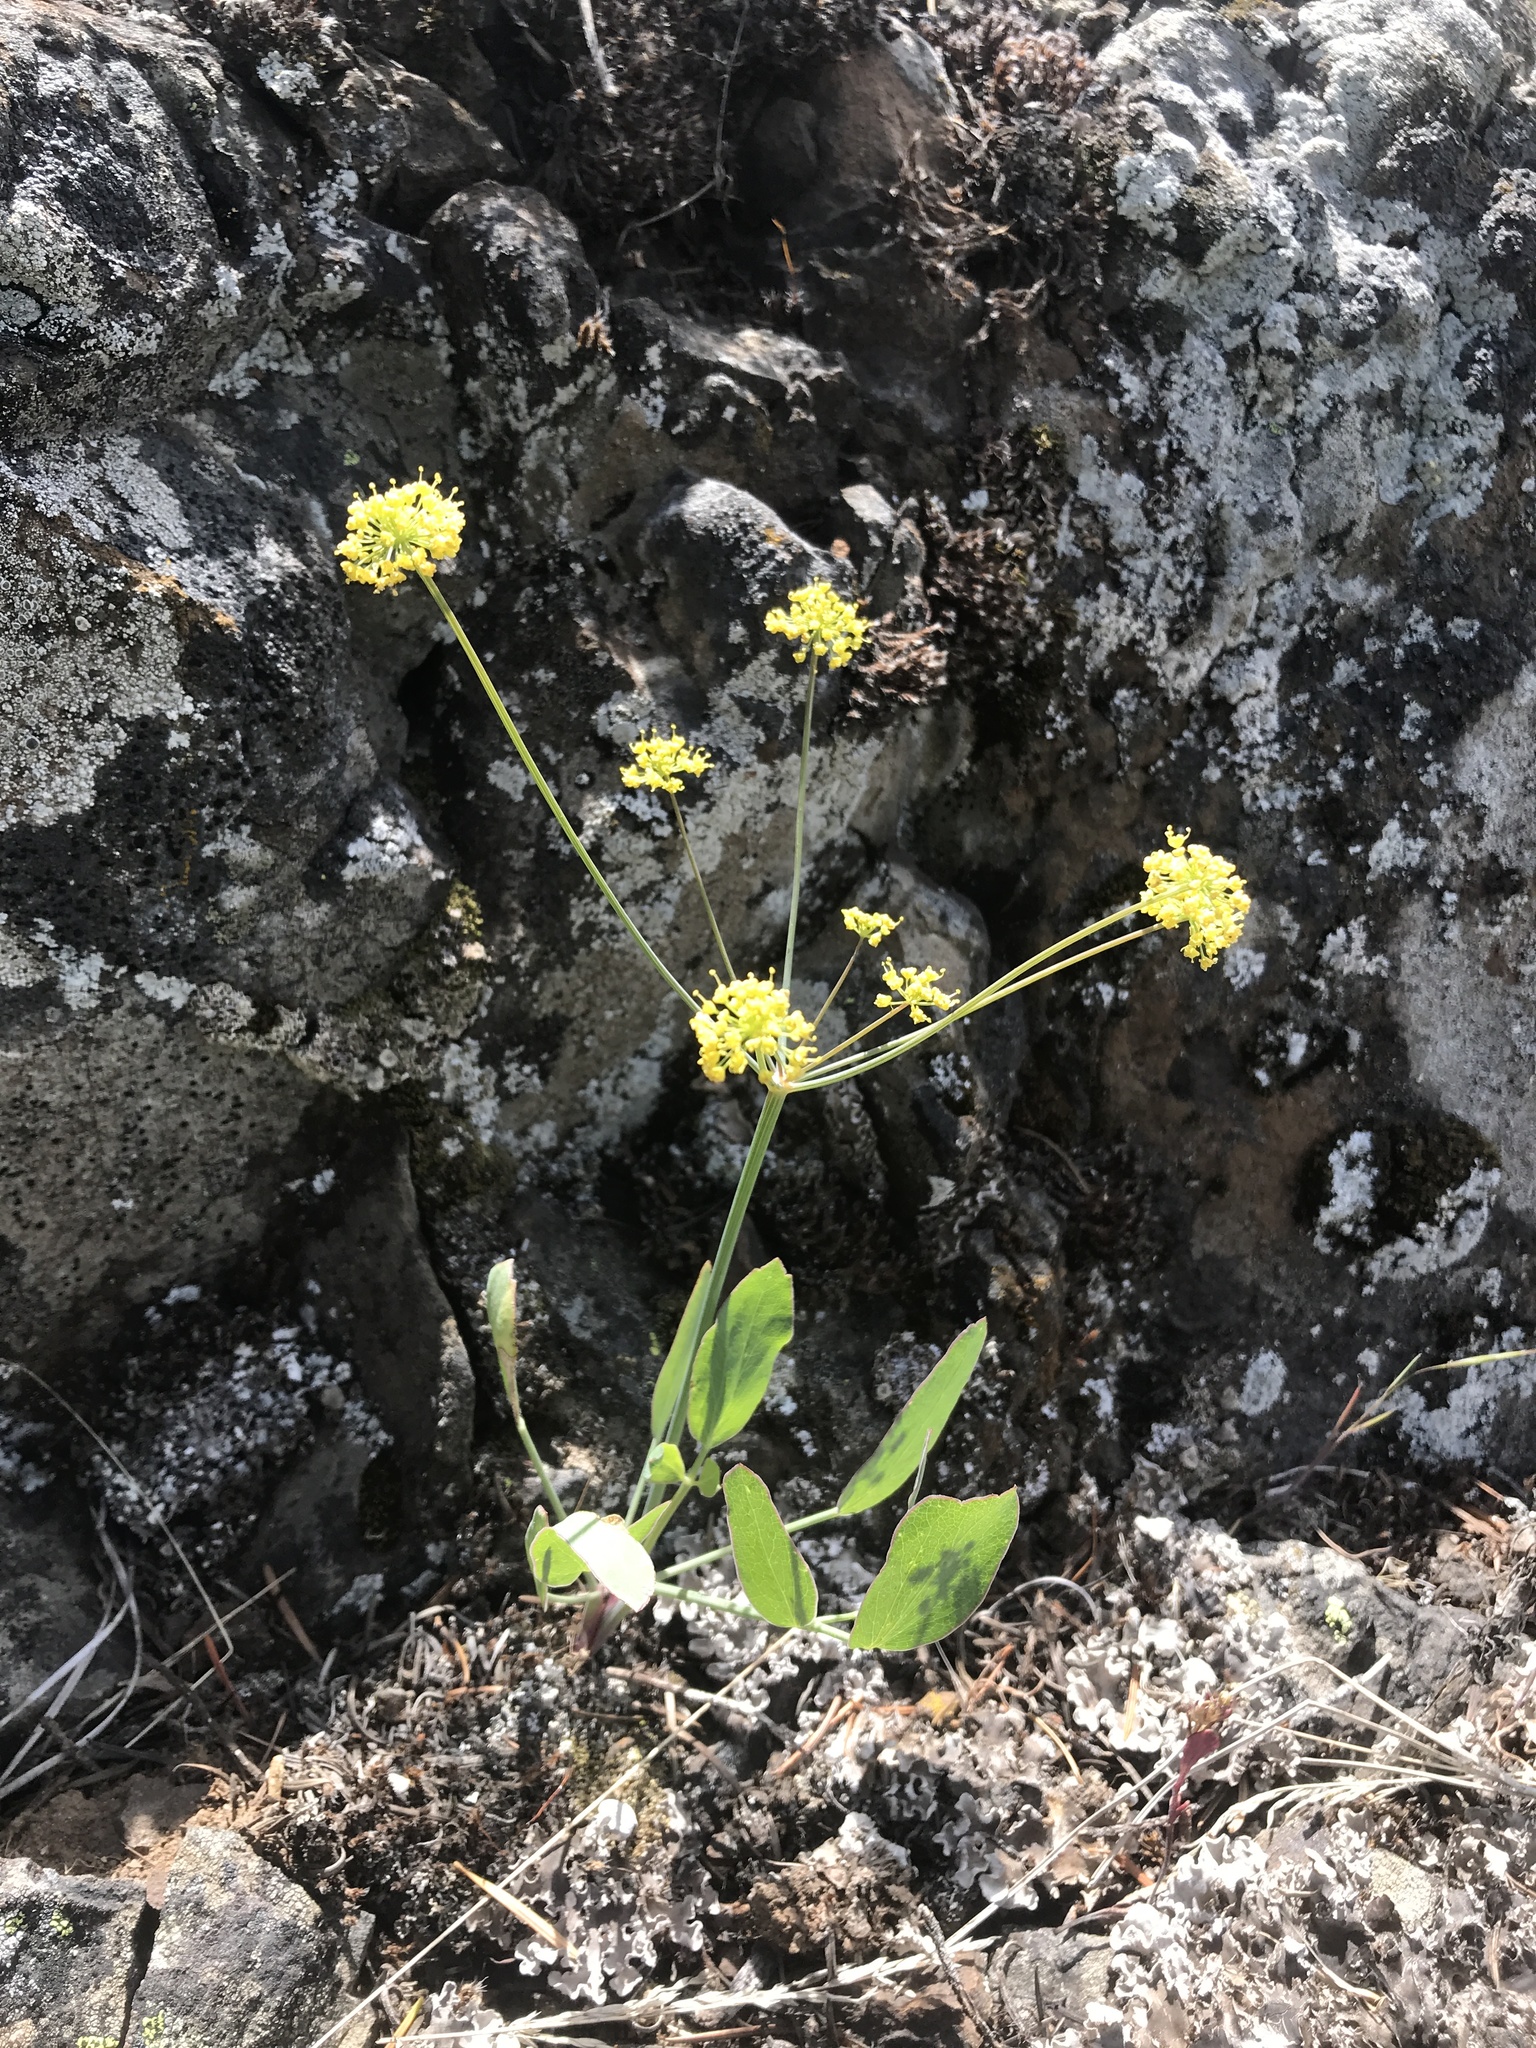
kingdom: Plantae
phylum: Tracheophyta
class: Magnoliopsida
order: Apiales
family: Apiaceae
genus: Lomatium
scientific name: Lomatium nudicaule
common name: Pestle lomatium
